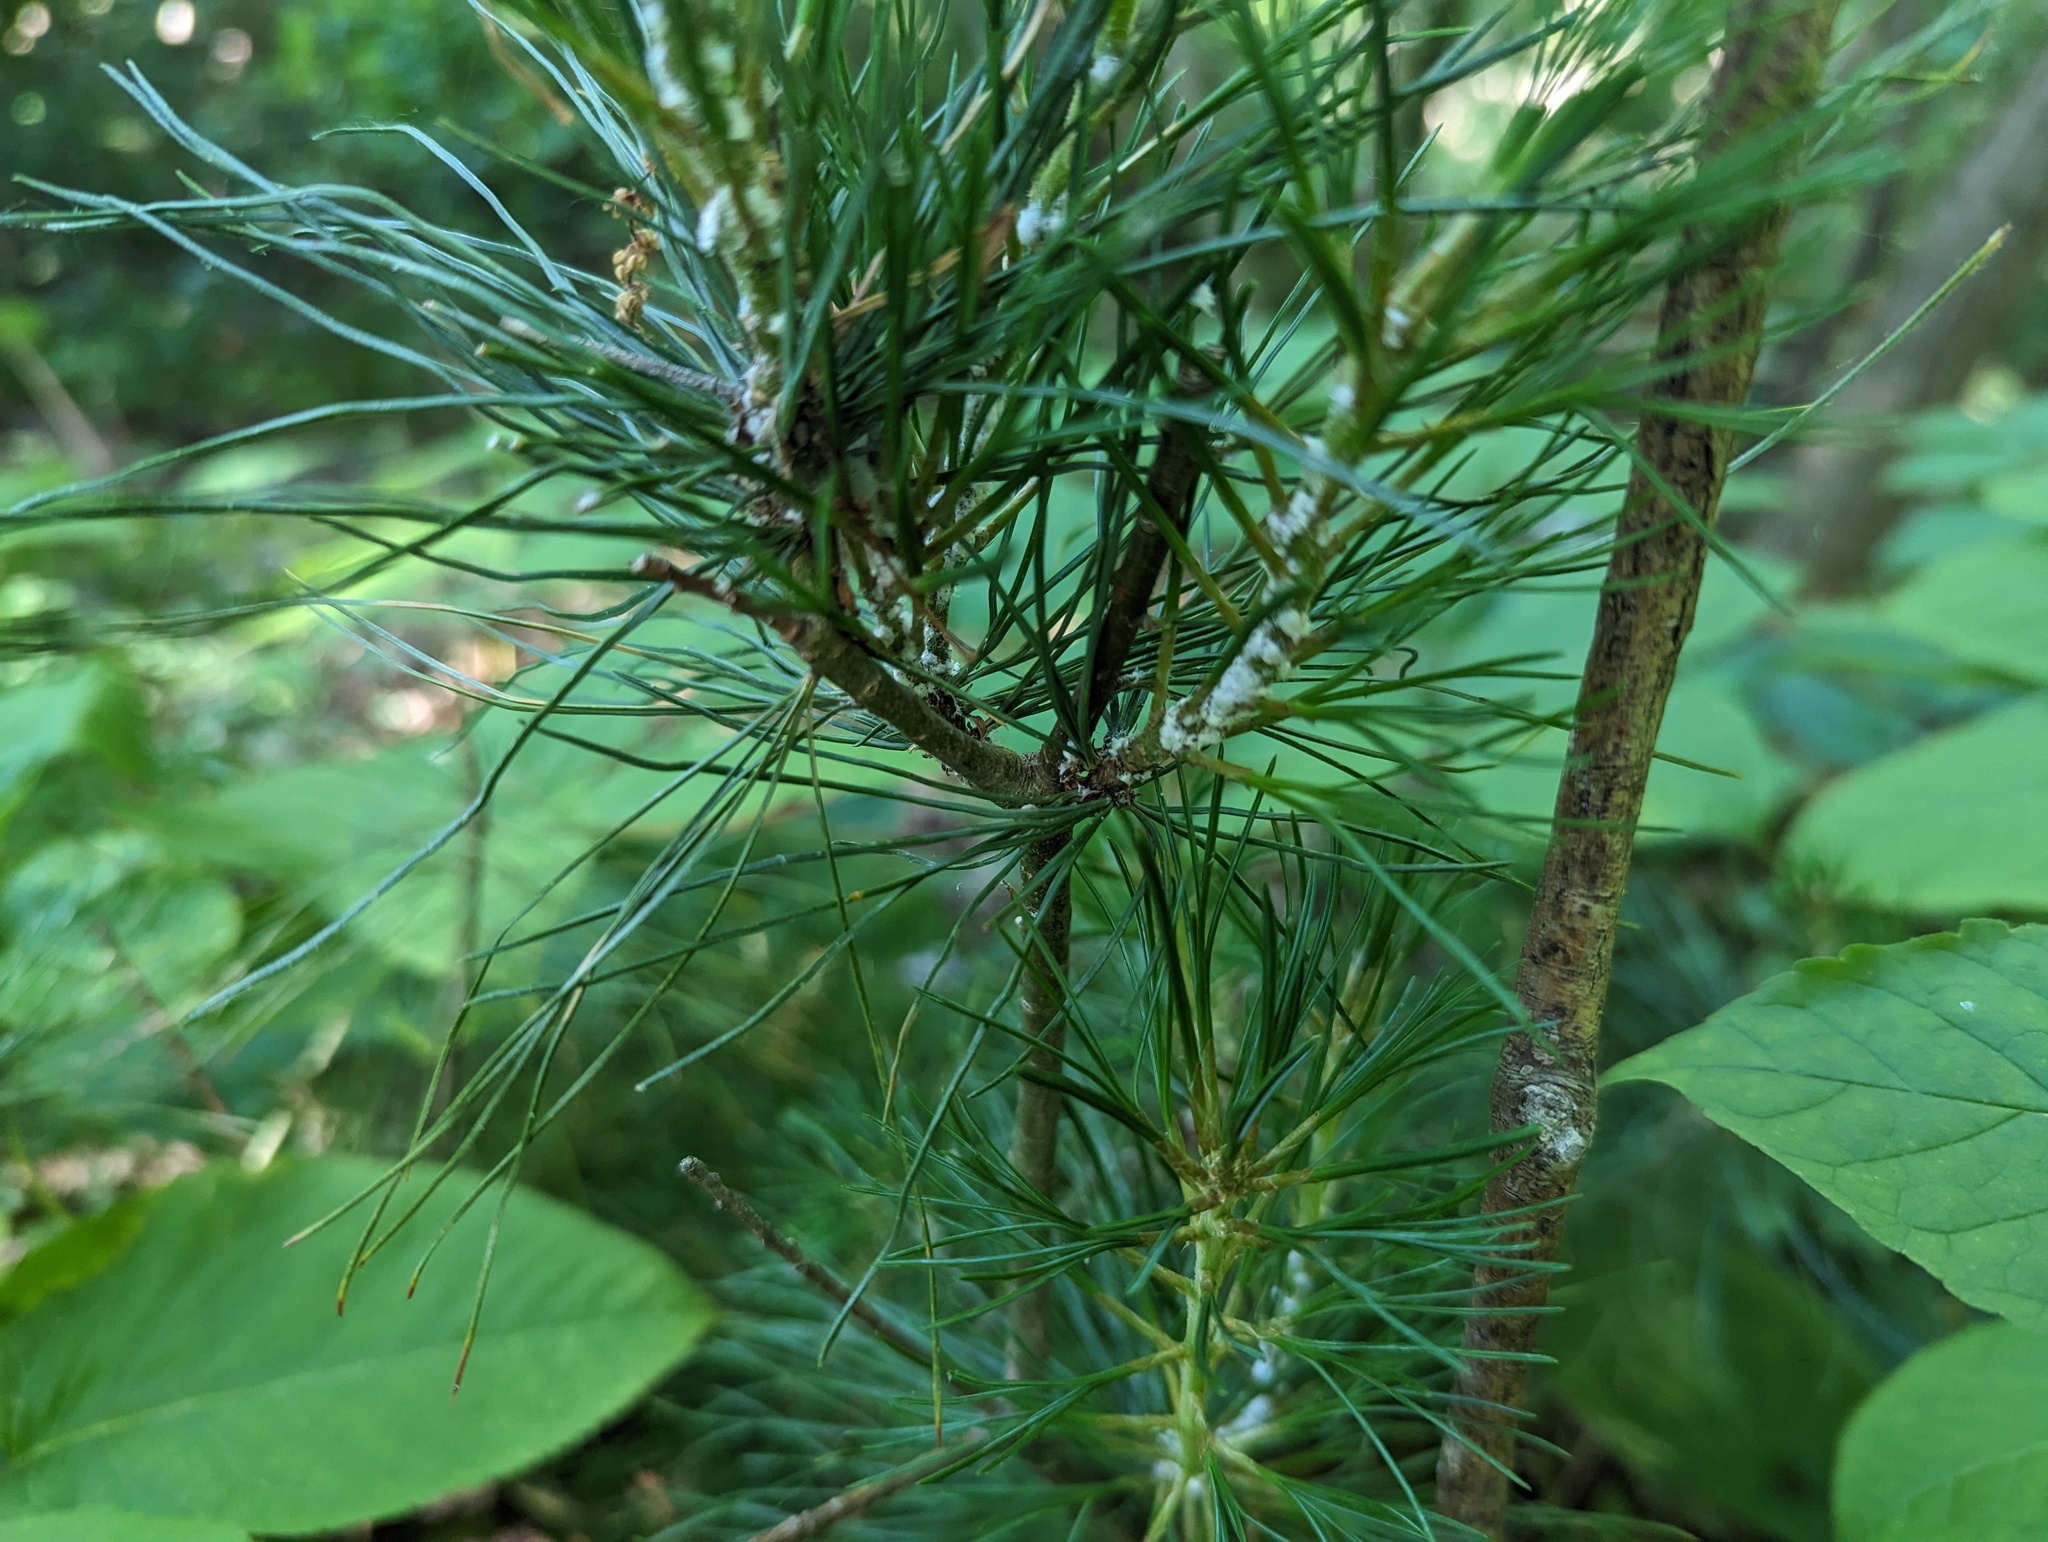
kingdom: Plantae
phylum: Tracheophyta
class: Pinopsida
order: Pinales
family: Pinaceae
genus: Pinus
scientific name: Pinus strobus
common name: Weymouth pine
